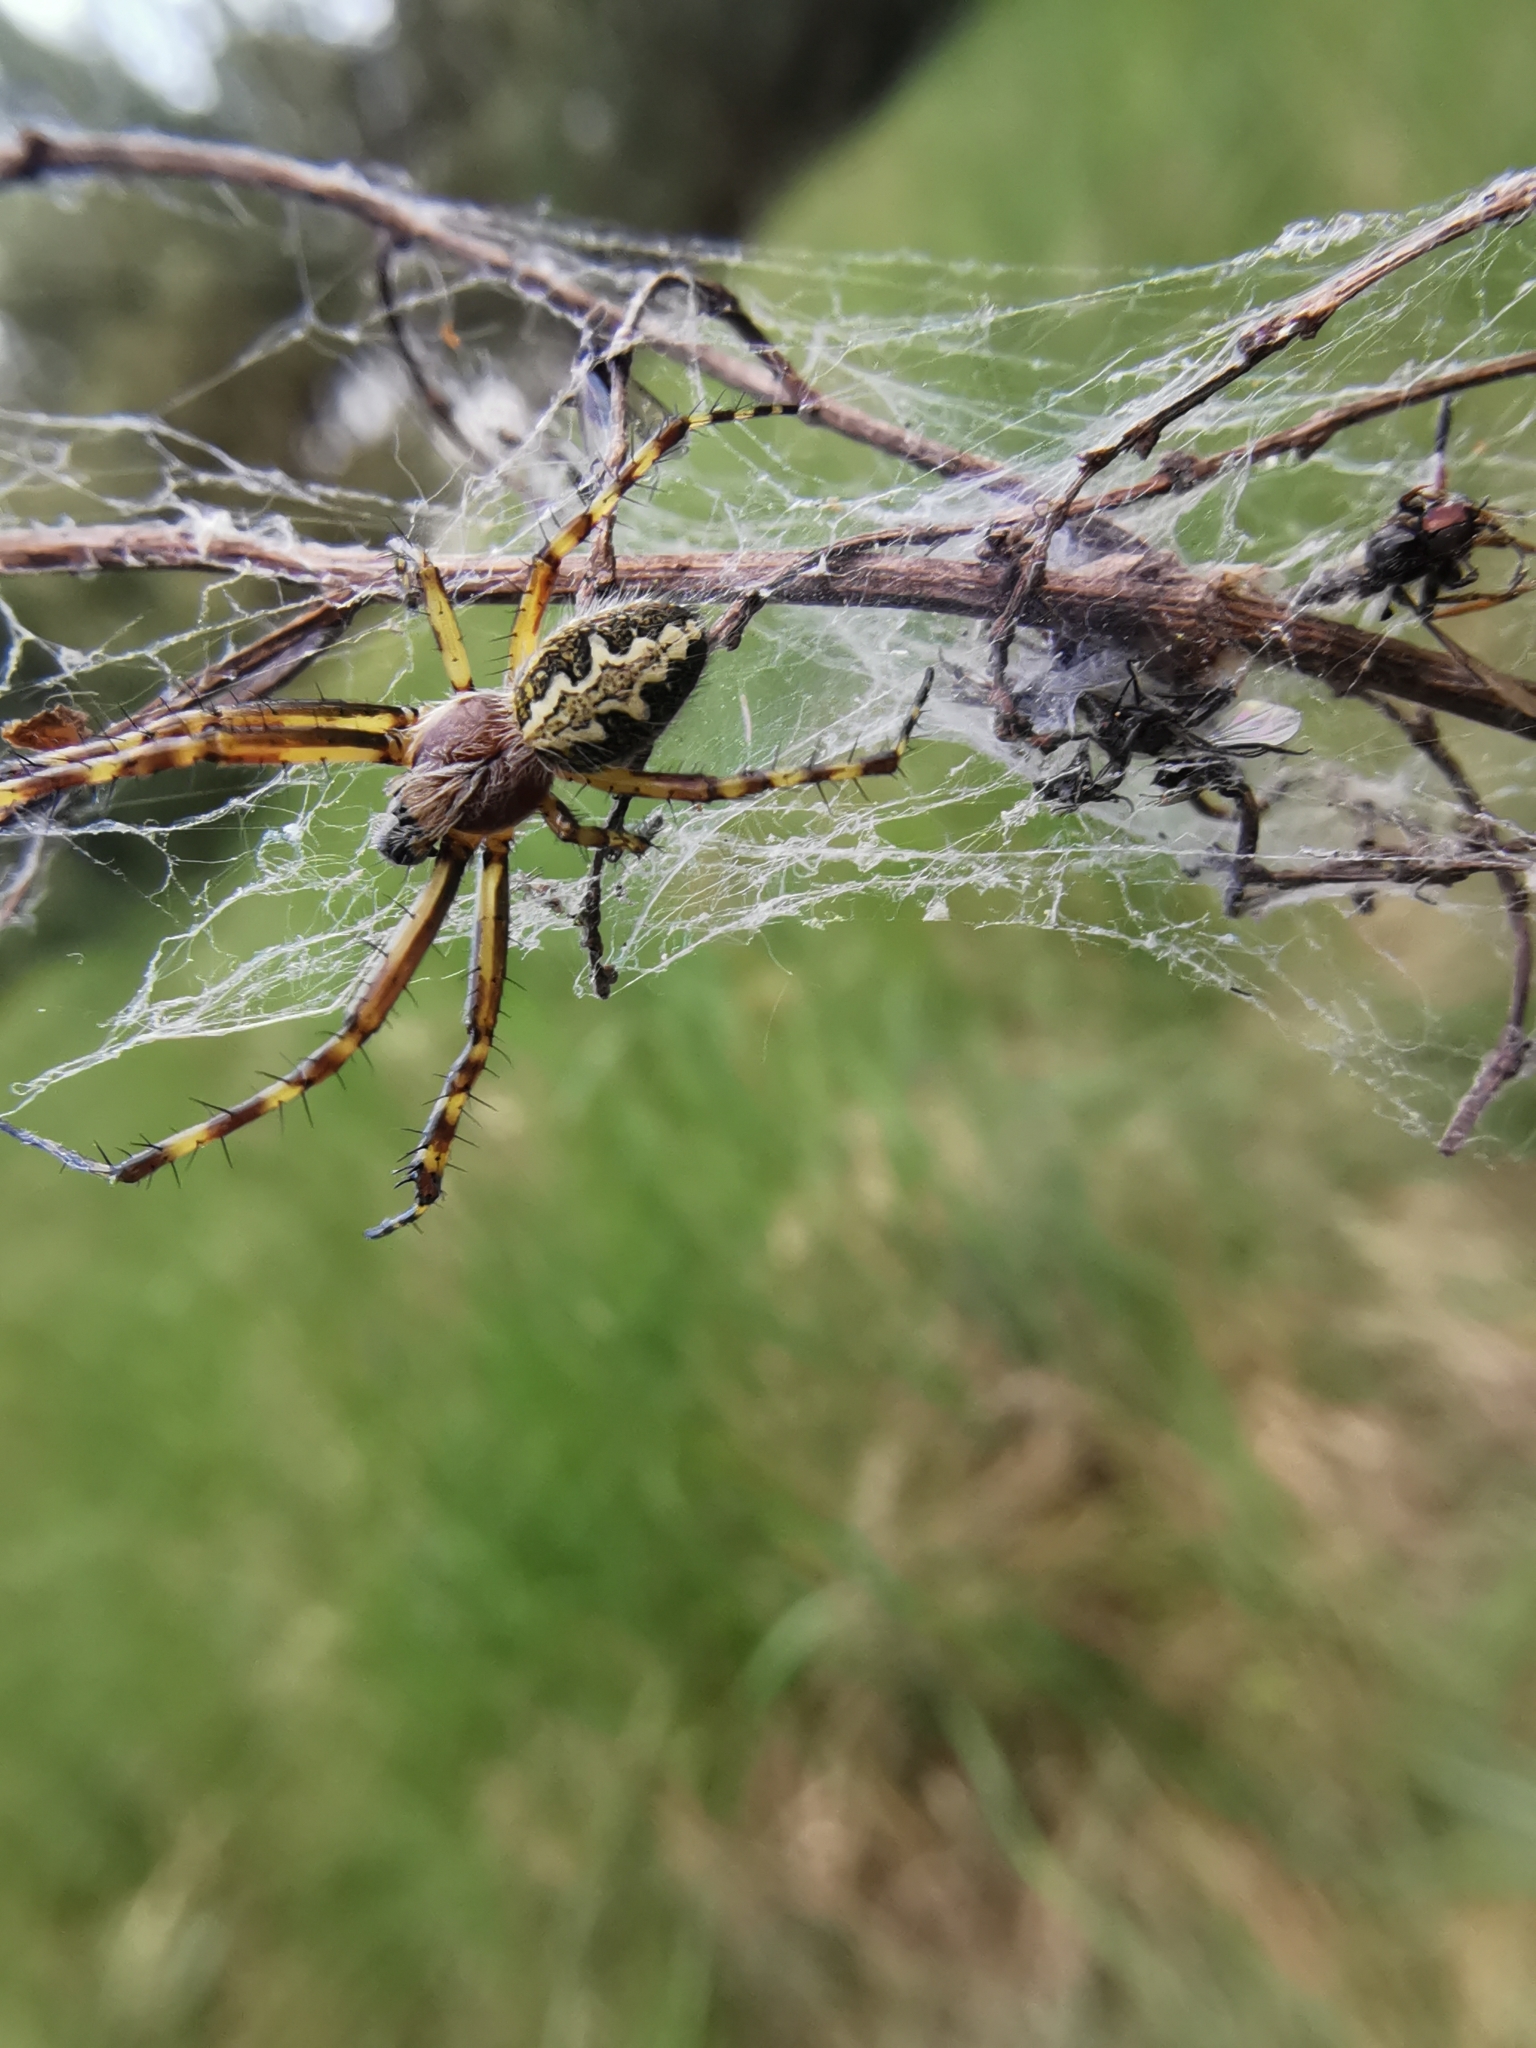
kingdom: Animalia
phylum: Arthropoda
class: Arachnida
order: Araneae
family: Araneidae
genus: Aculepeira
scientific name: Aculepeira ceropegia
